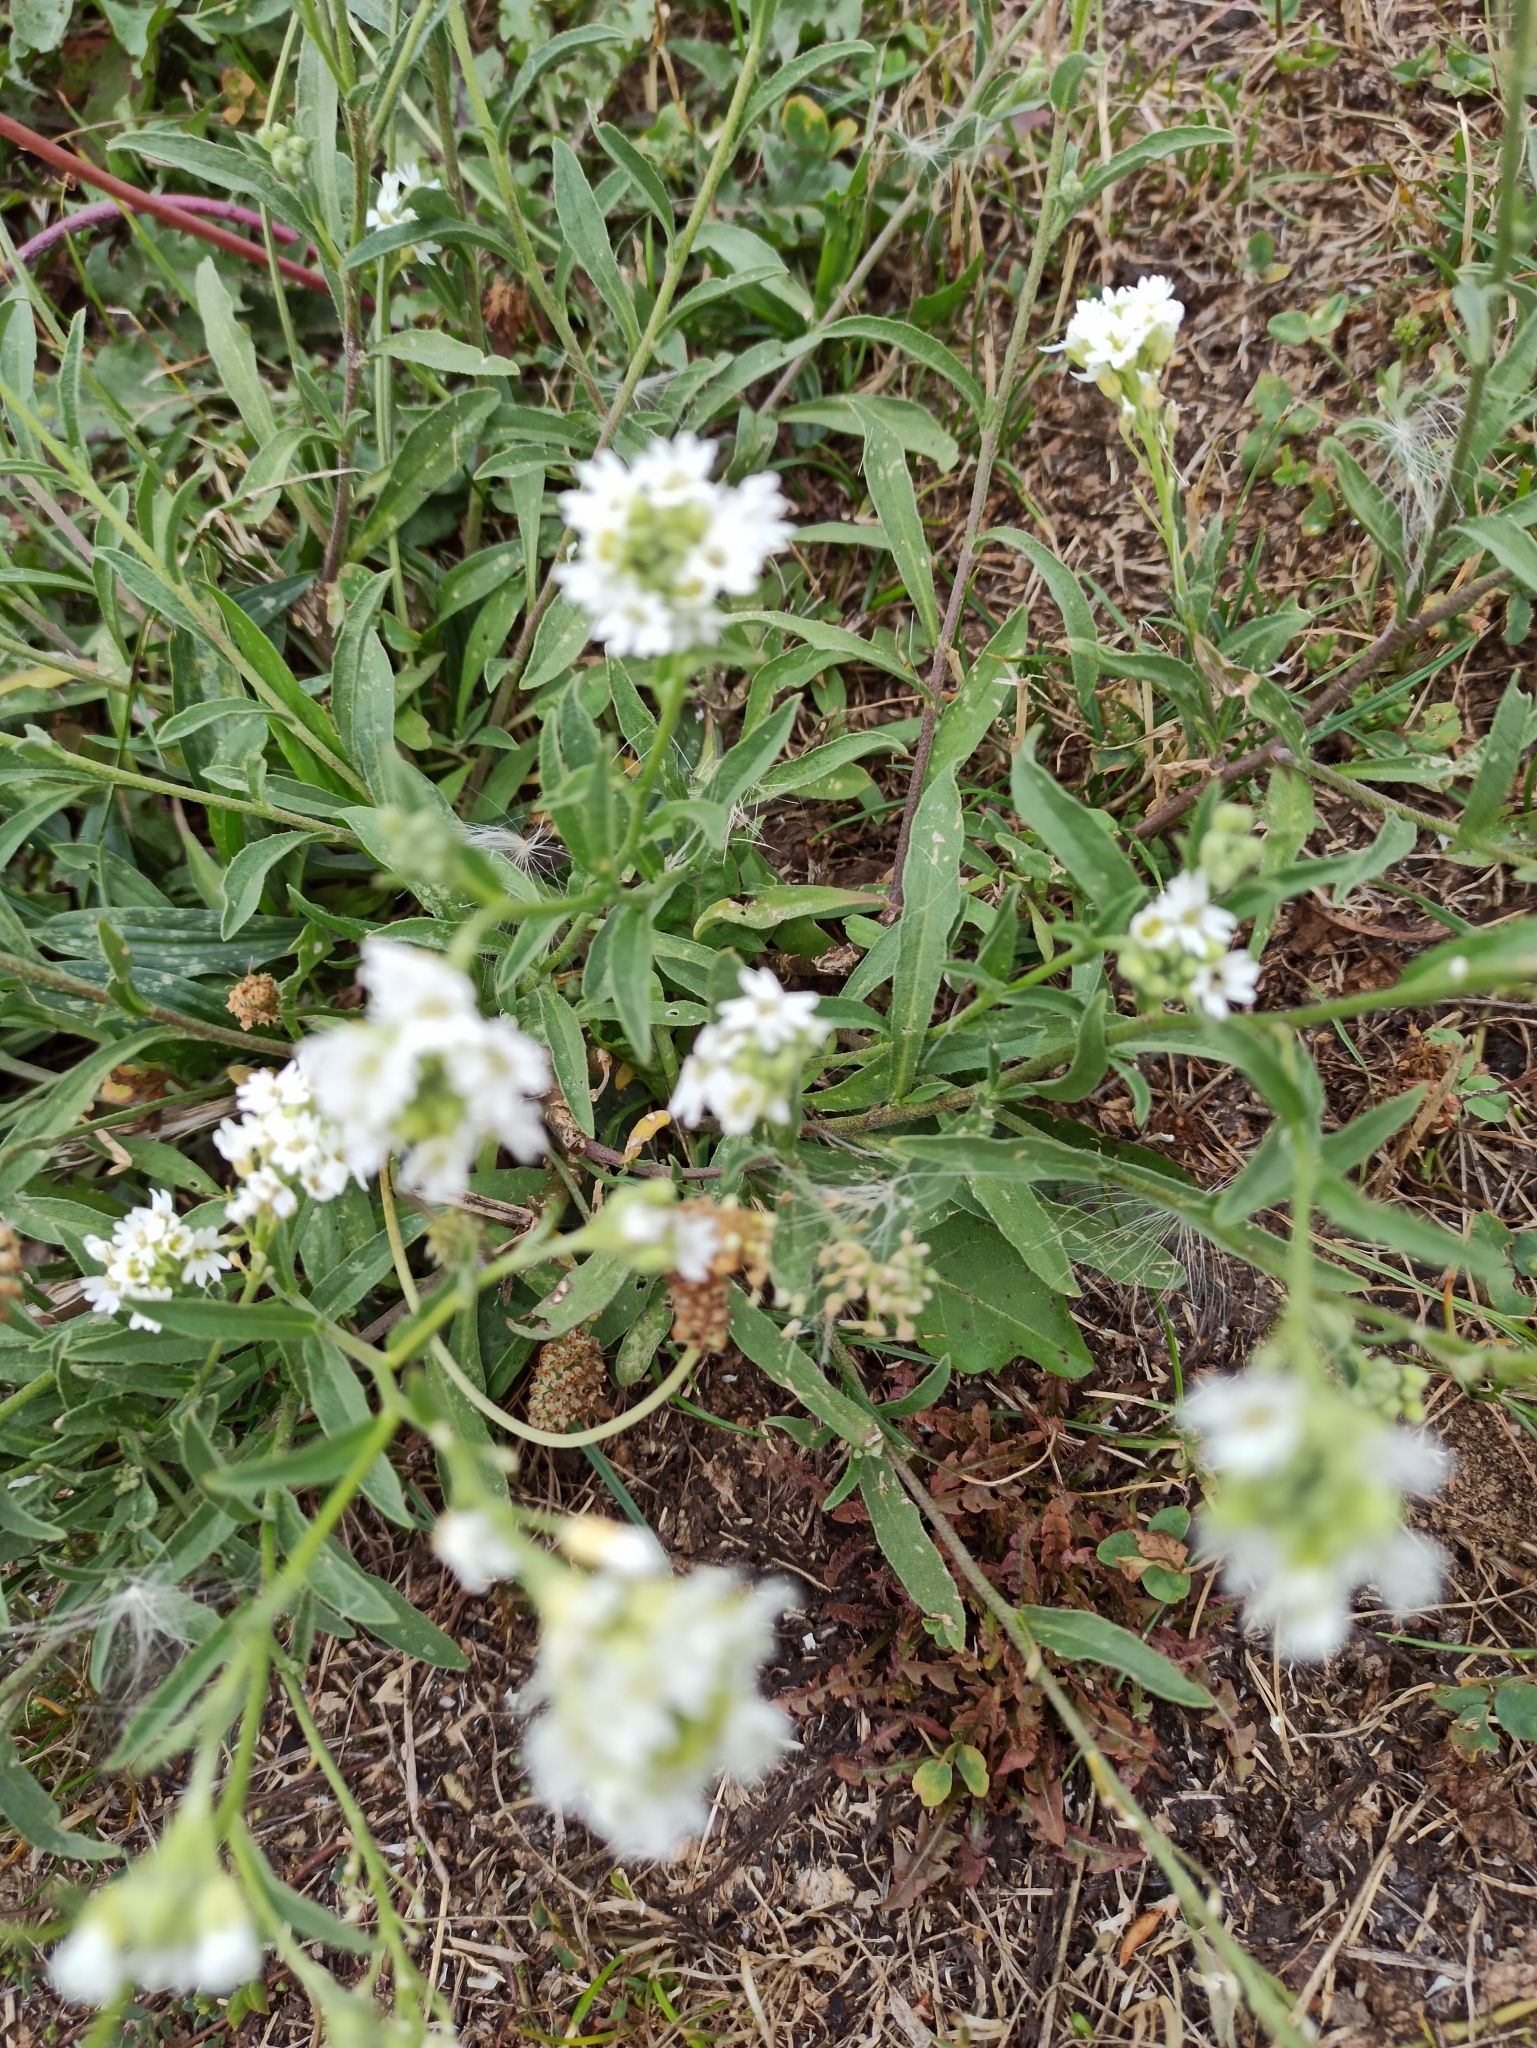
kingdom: Plantae
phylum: Tracheophyta
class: Magnoliopsida
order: Brassicales
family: Brassicaceae
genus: Berteroa
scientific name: Berteroa incana
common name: Hoary alison
